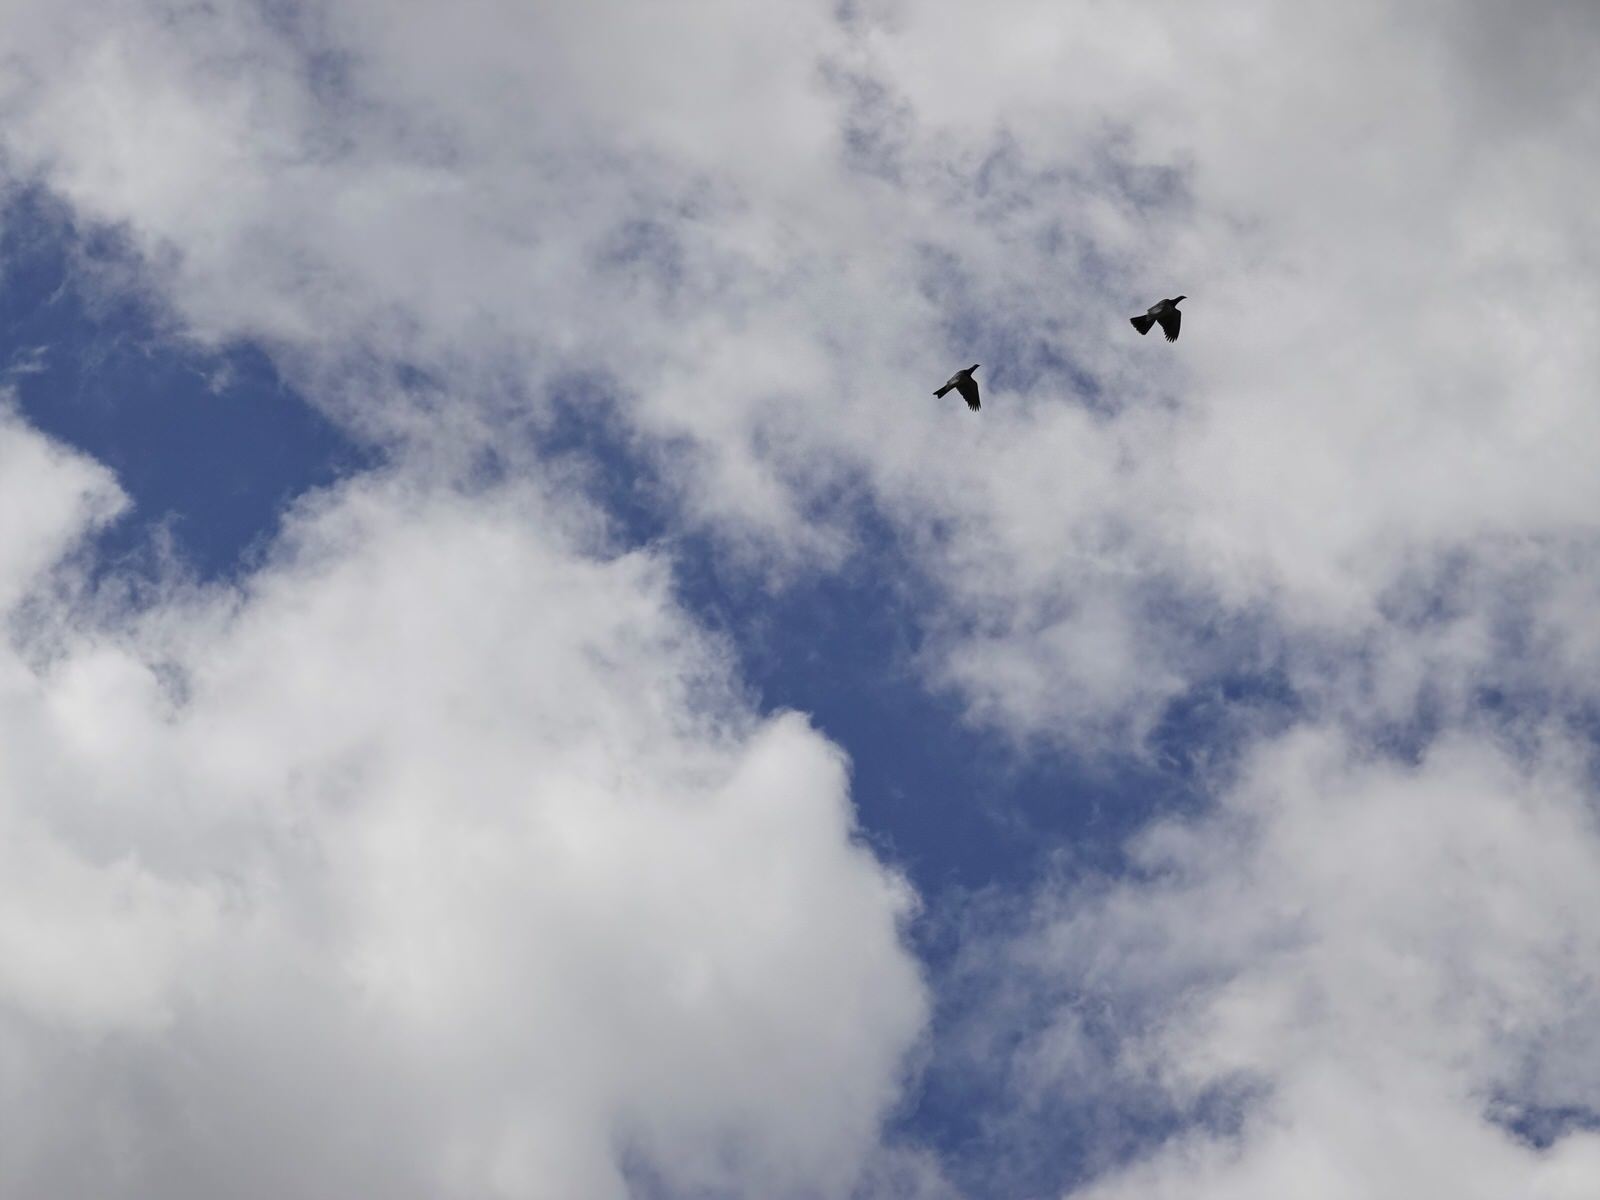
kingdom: Animalia
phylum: Chordata
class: Aves
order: Columbiformes
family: Columbidae
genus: Hemiphaga
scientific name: Hemiphaga novaeseelandiae
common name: New zealand pigeon
